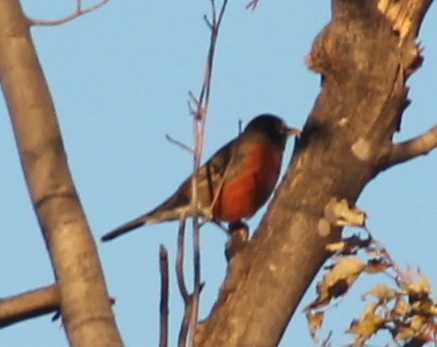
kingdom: Animalia
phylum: Chordata
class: Aves
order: Passeriformes
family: Turdidae
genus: Turdus
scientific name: Turdus migratorius
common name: American robin
